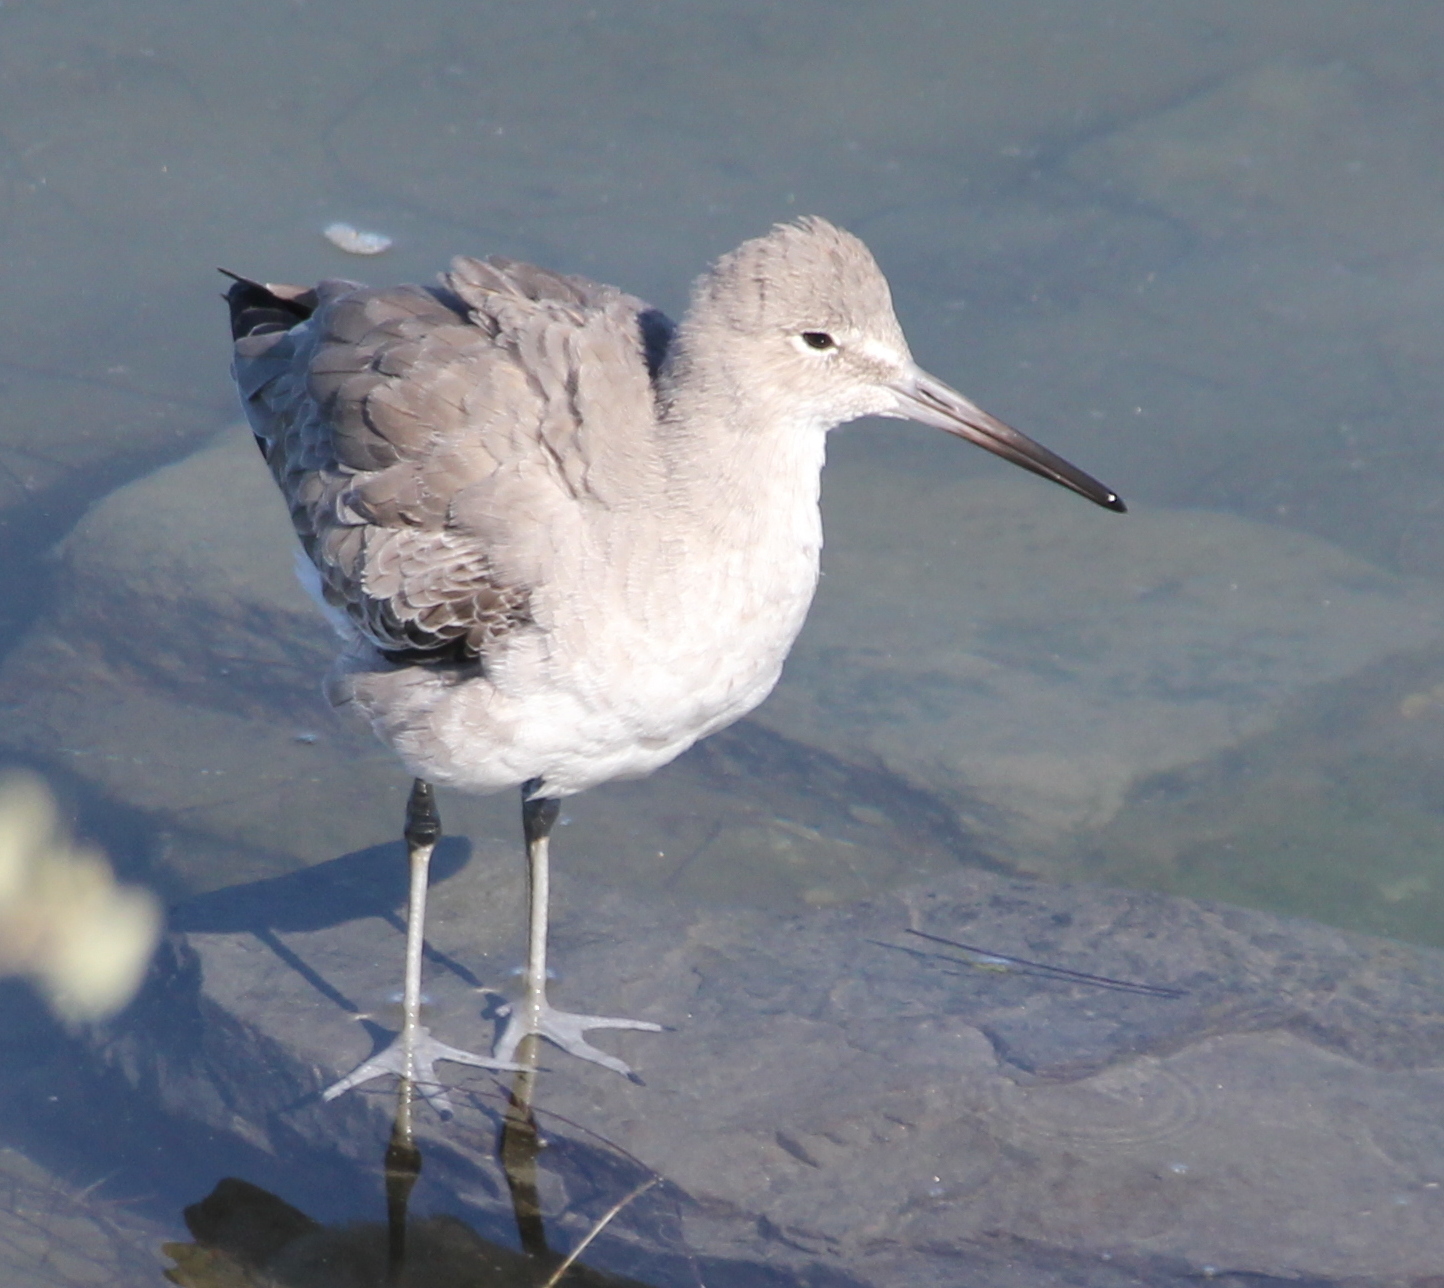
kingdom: Animalia
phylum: Chordata
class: Aves
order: Charadriiformes
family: Scolopacidae
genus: Tringa
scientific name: Tringa semipalmata
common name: Willet
